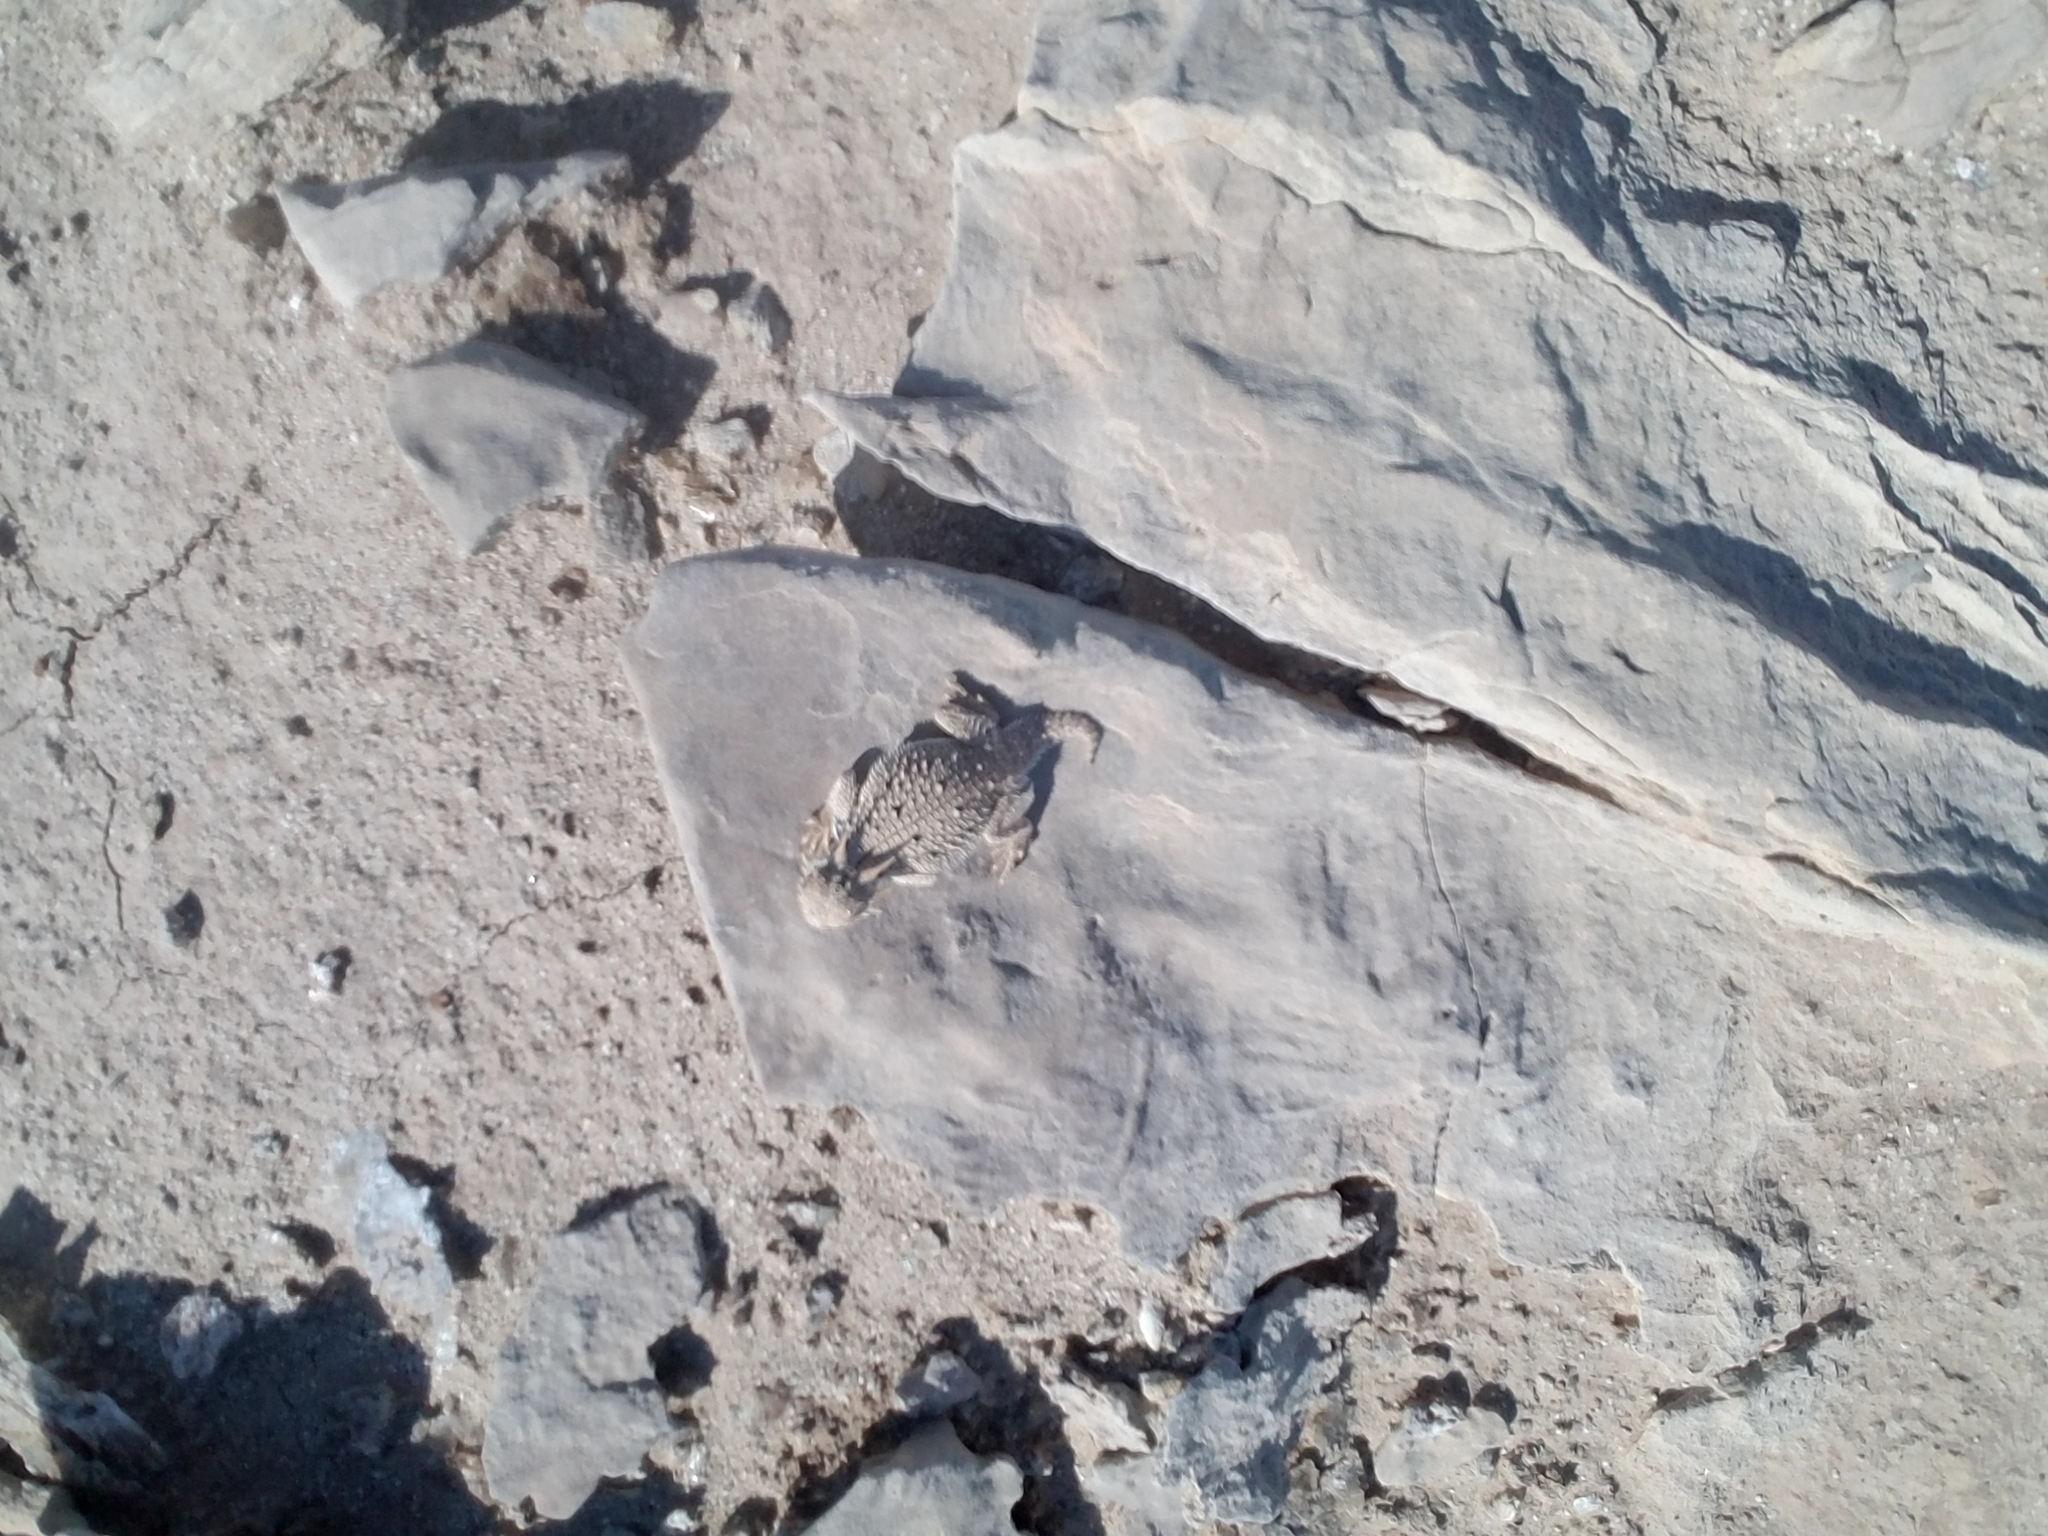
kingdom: Animalia
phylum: Chordata
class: Squamata
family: Phrynosomatidae
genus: Phrynosoma
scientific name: Phrynosoma mcallii
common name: Flat-tailed horned lizard
